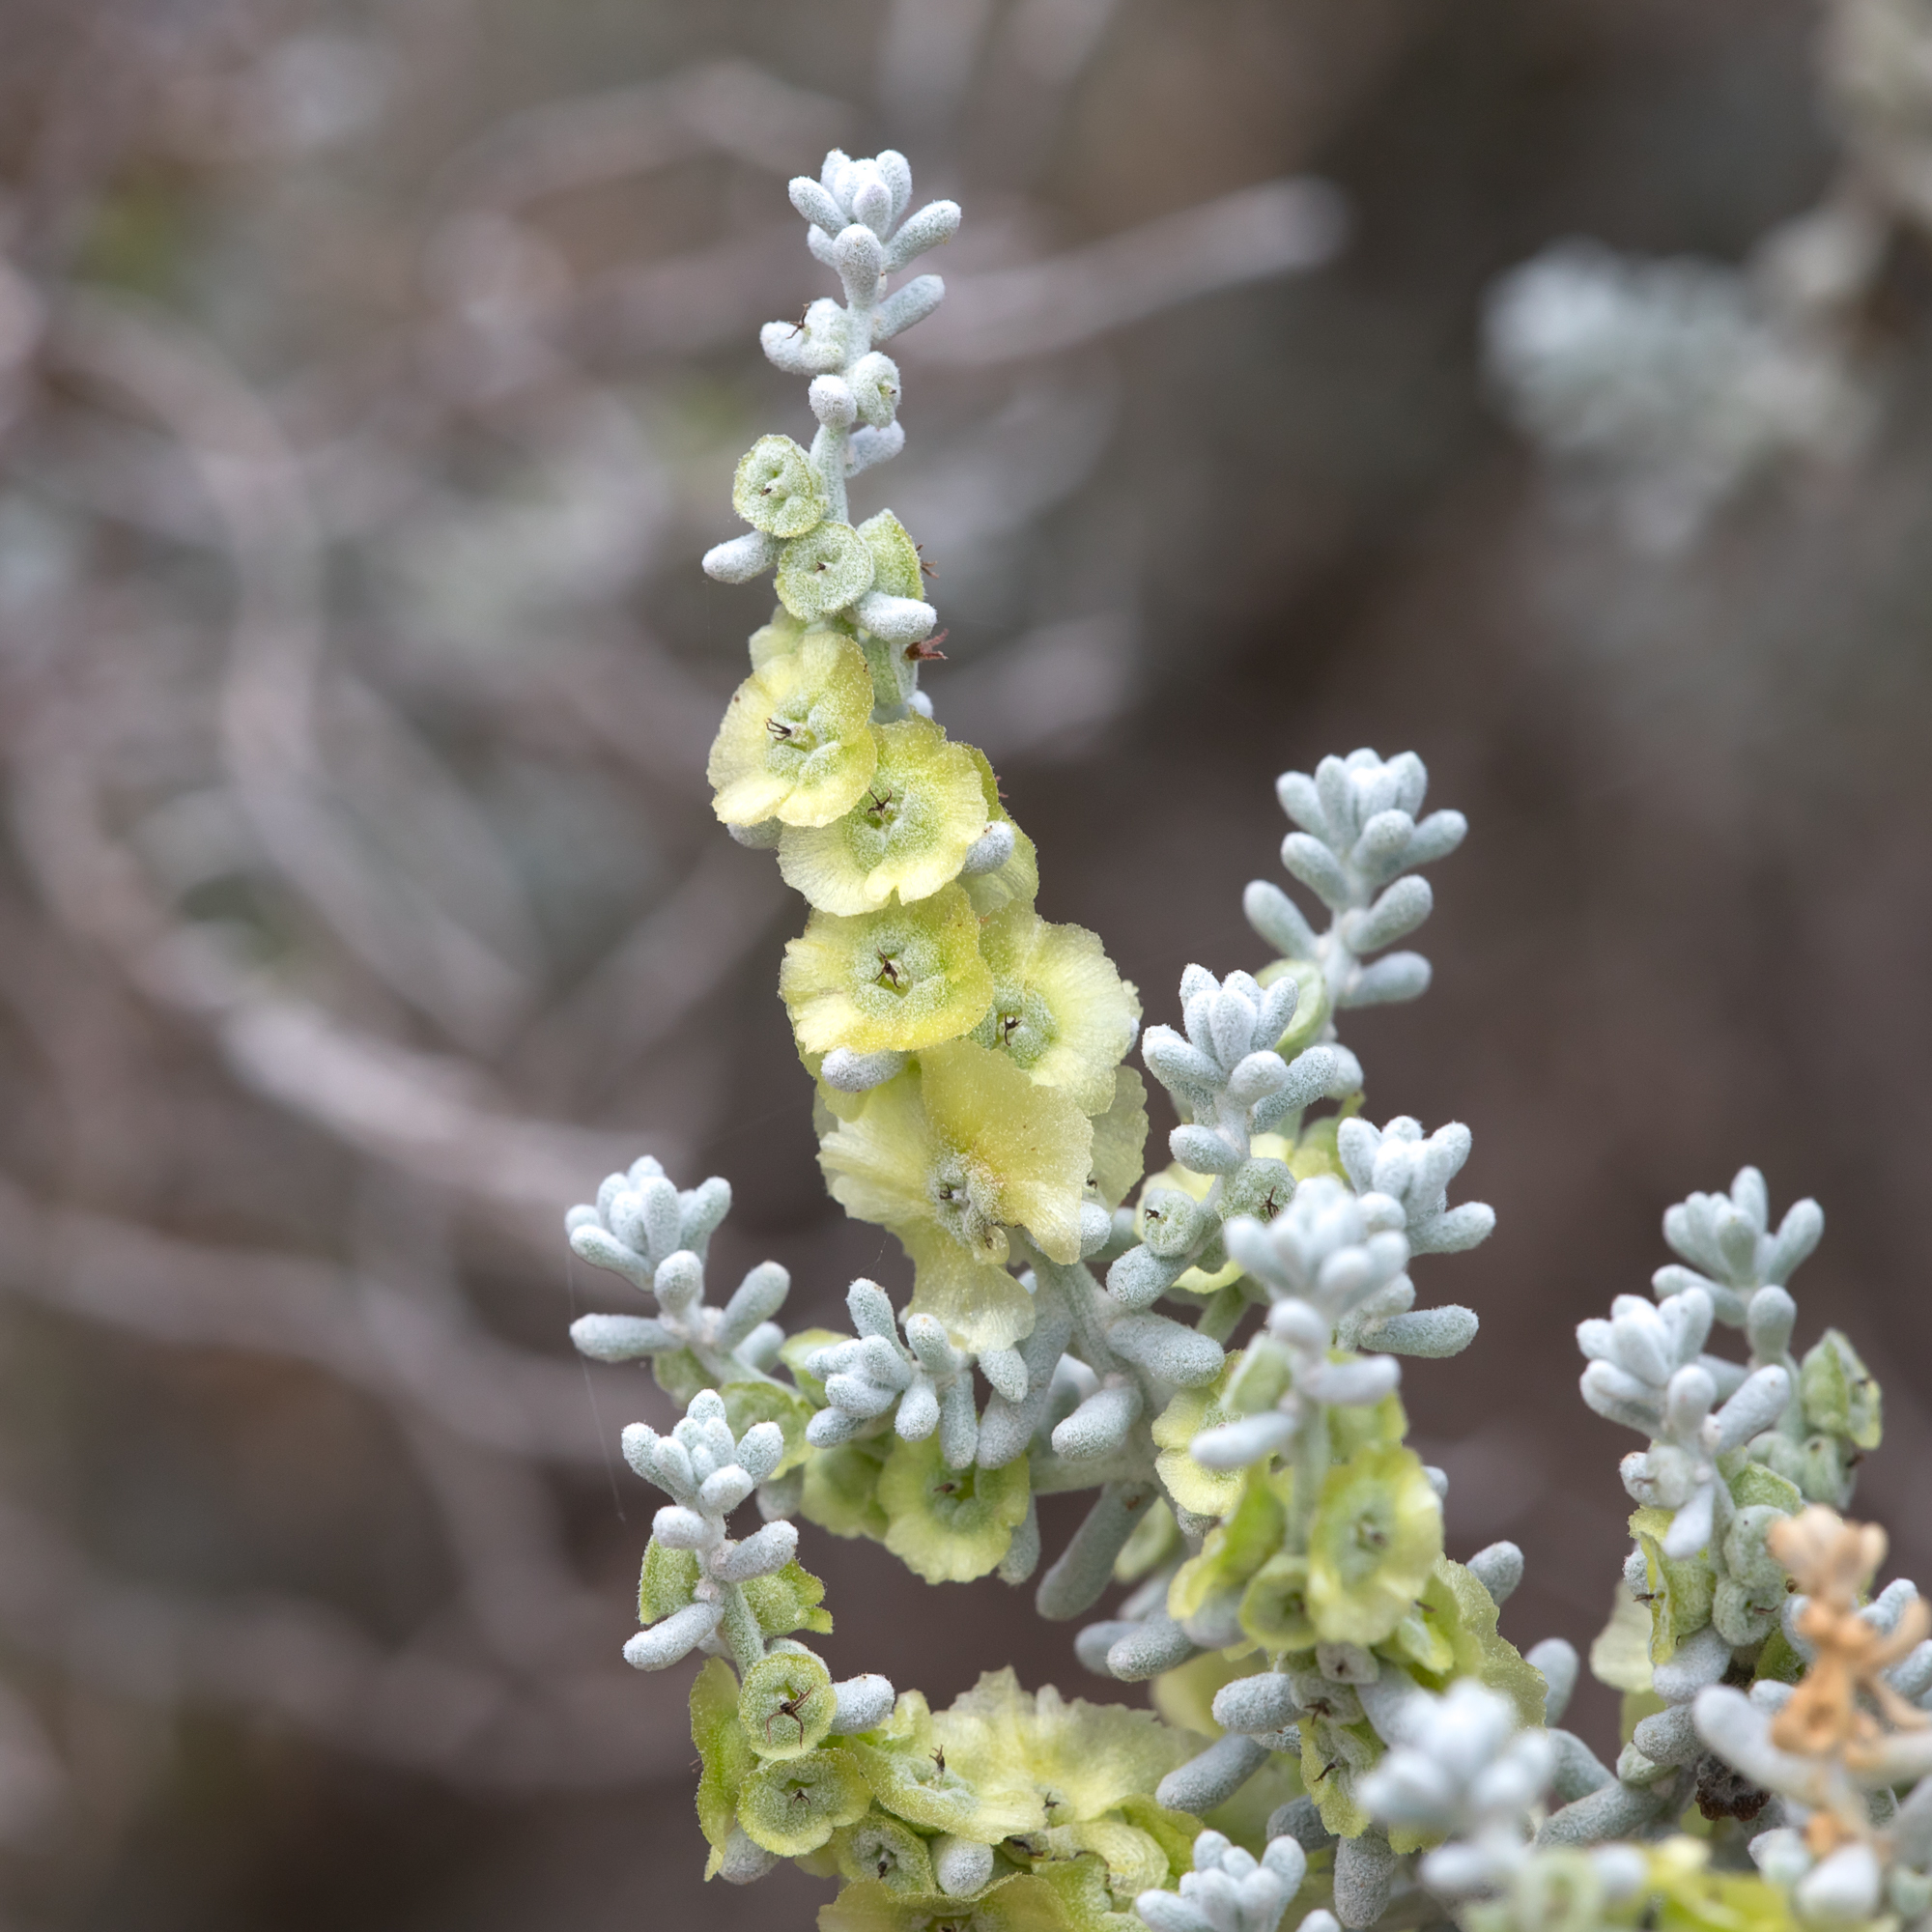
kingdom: Plantae
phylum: Tracheophyta
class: Magnoliopsida
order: Caryophyllales
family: Amaranthaceae
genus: Maireana
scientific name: Maireana sedifolia
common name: Hoary bluebush
